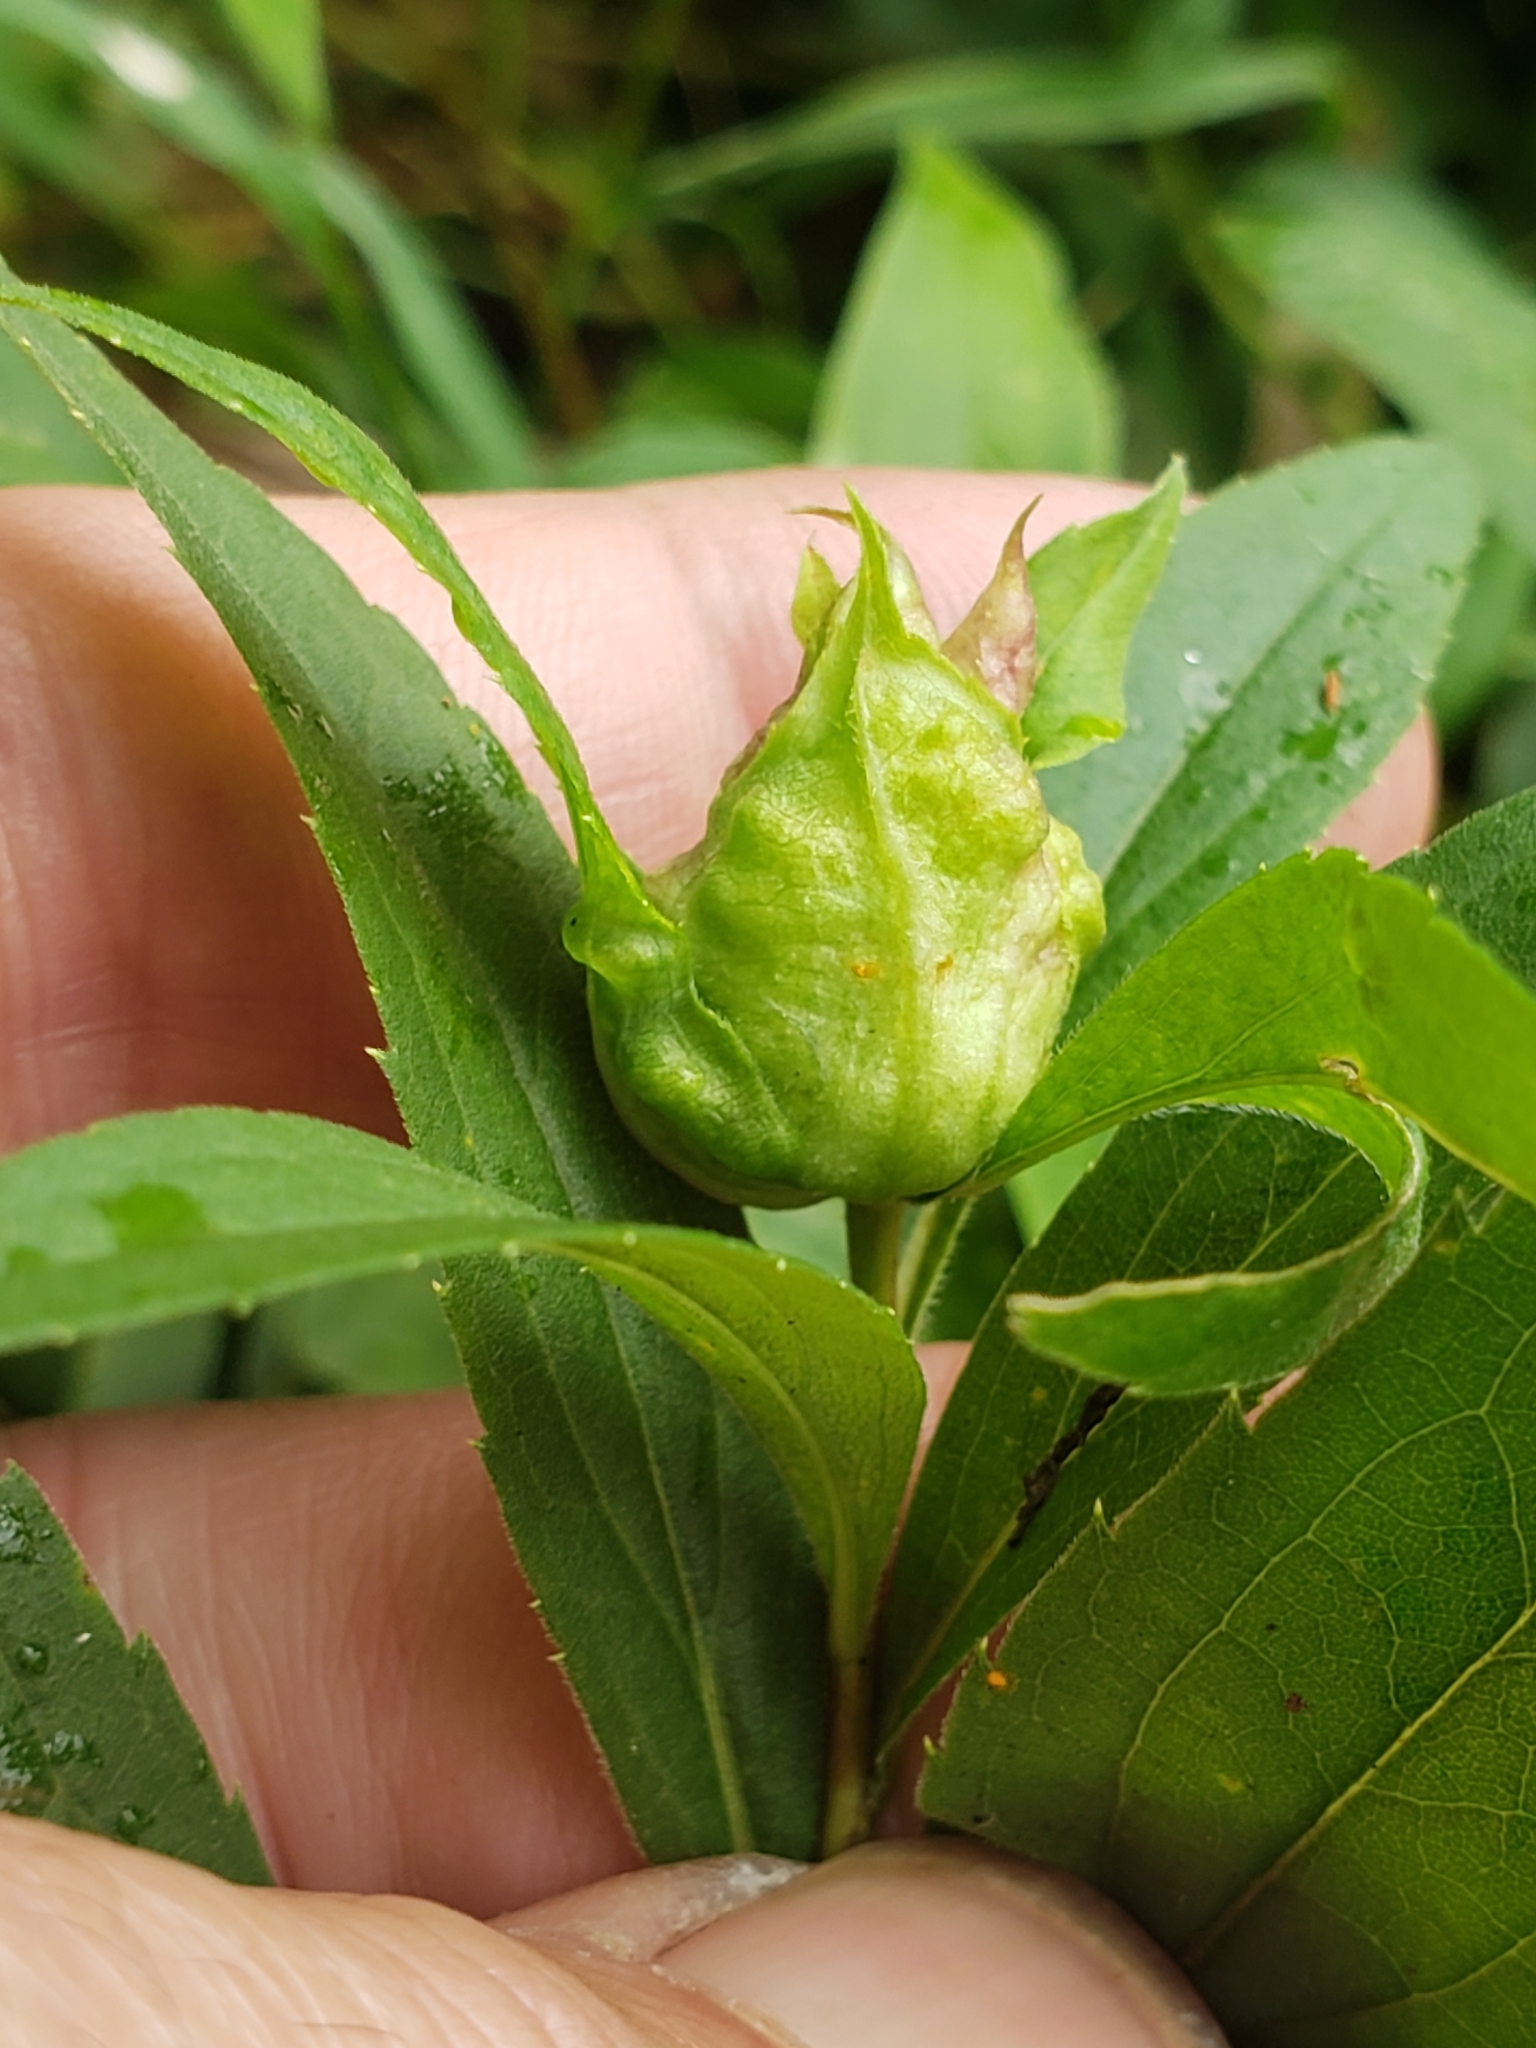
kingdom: Animalia
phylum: Arthropoda
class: Insecta
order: Diptera
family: Cecidomyiidae
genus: Dasineura
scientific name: Dasineura folliculi
